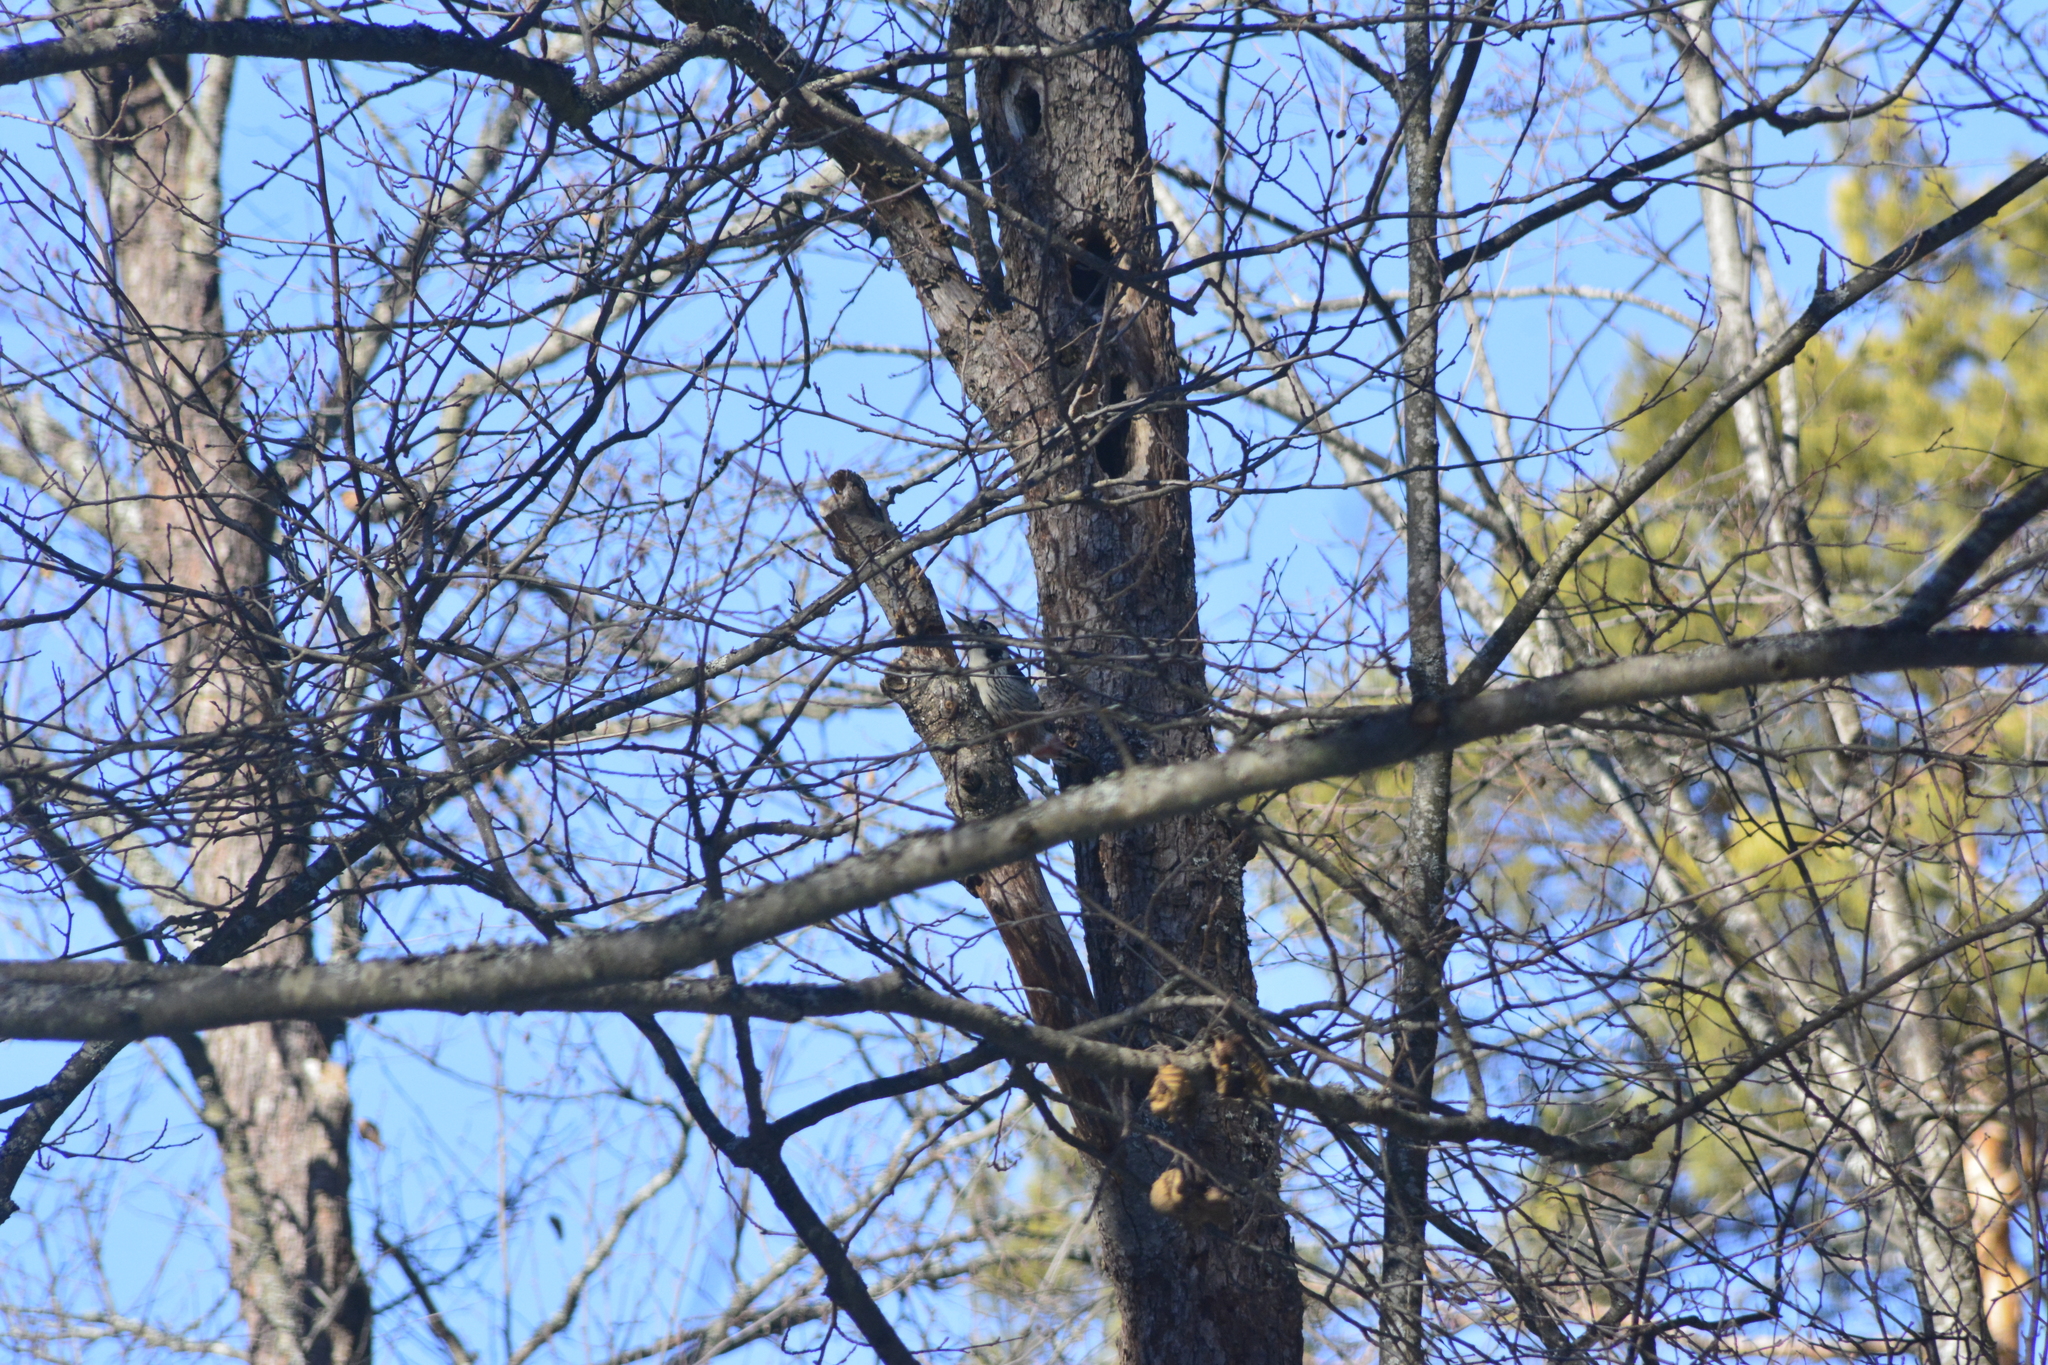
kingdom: Animalia
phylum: Chordata
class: Aves
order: Piciformes
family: Picidae
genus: Dendrocopos
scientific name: Dendrocopos leucotos
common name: White-backed woodpecker
